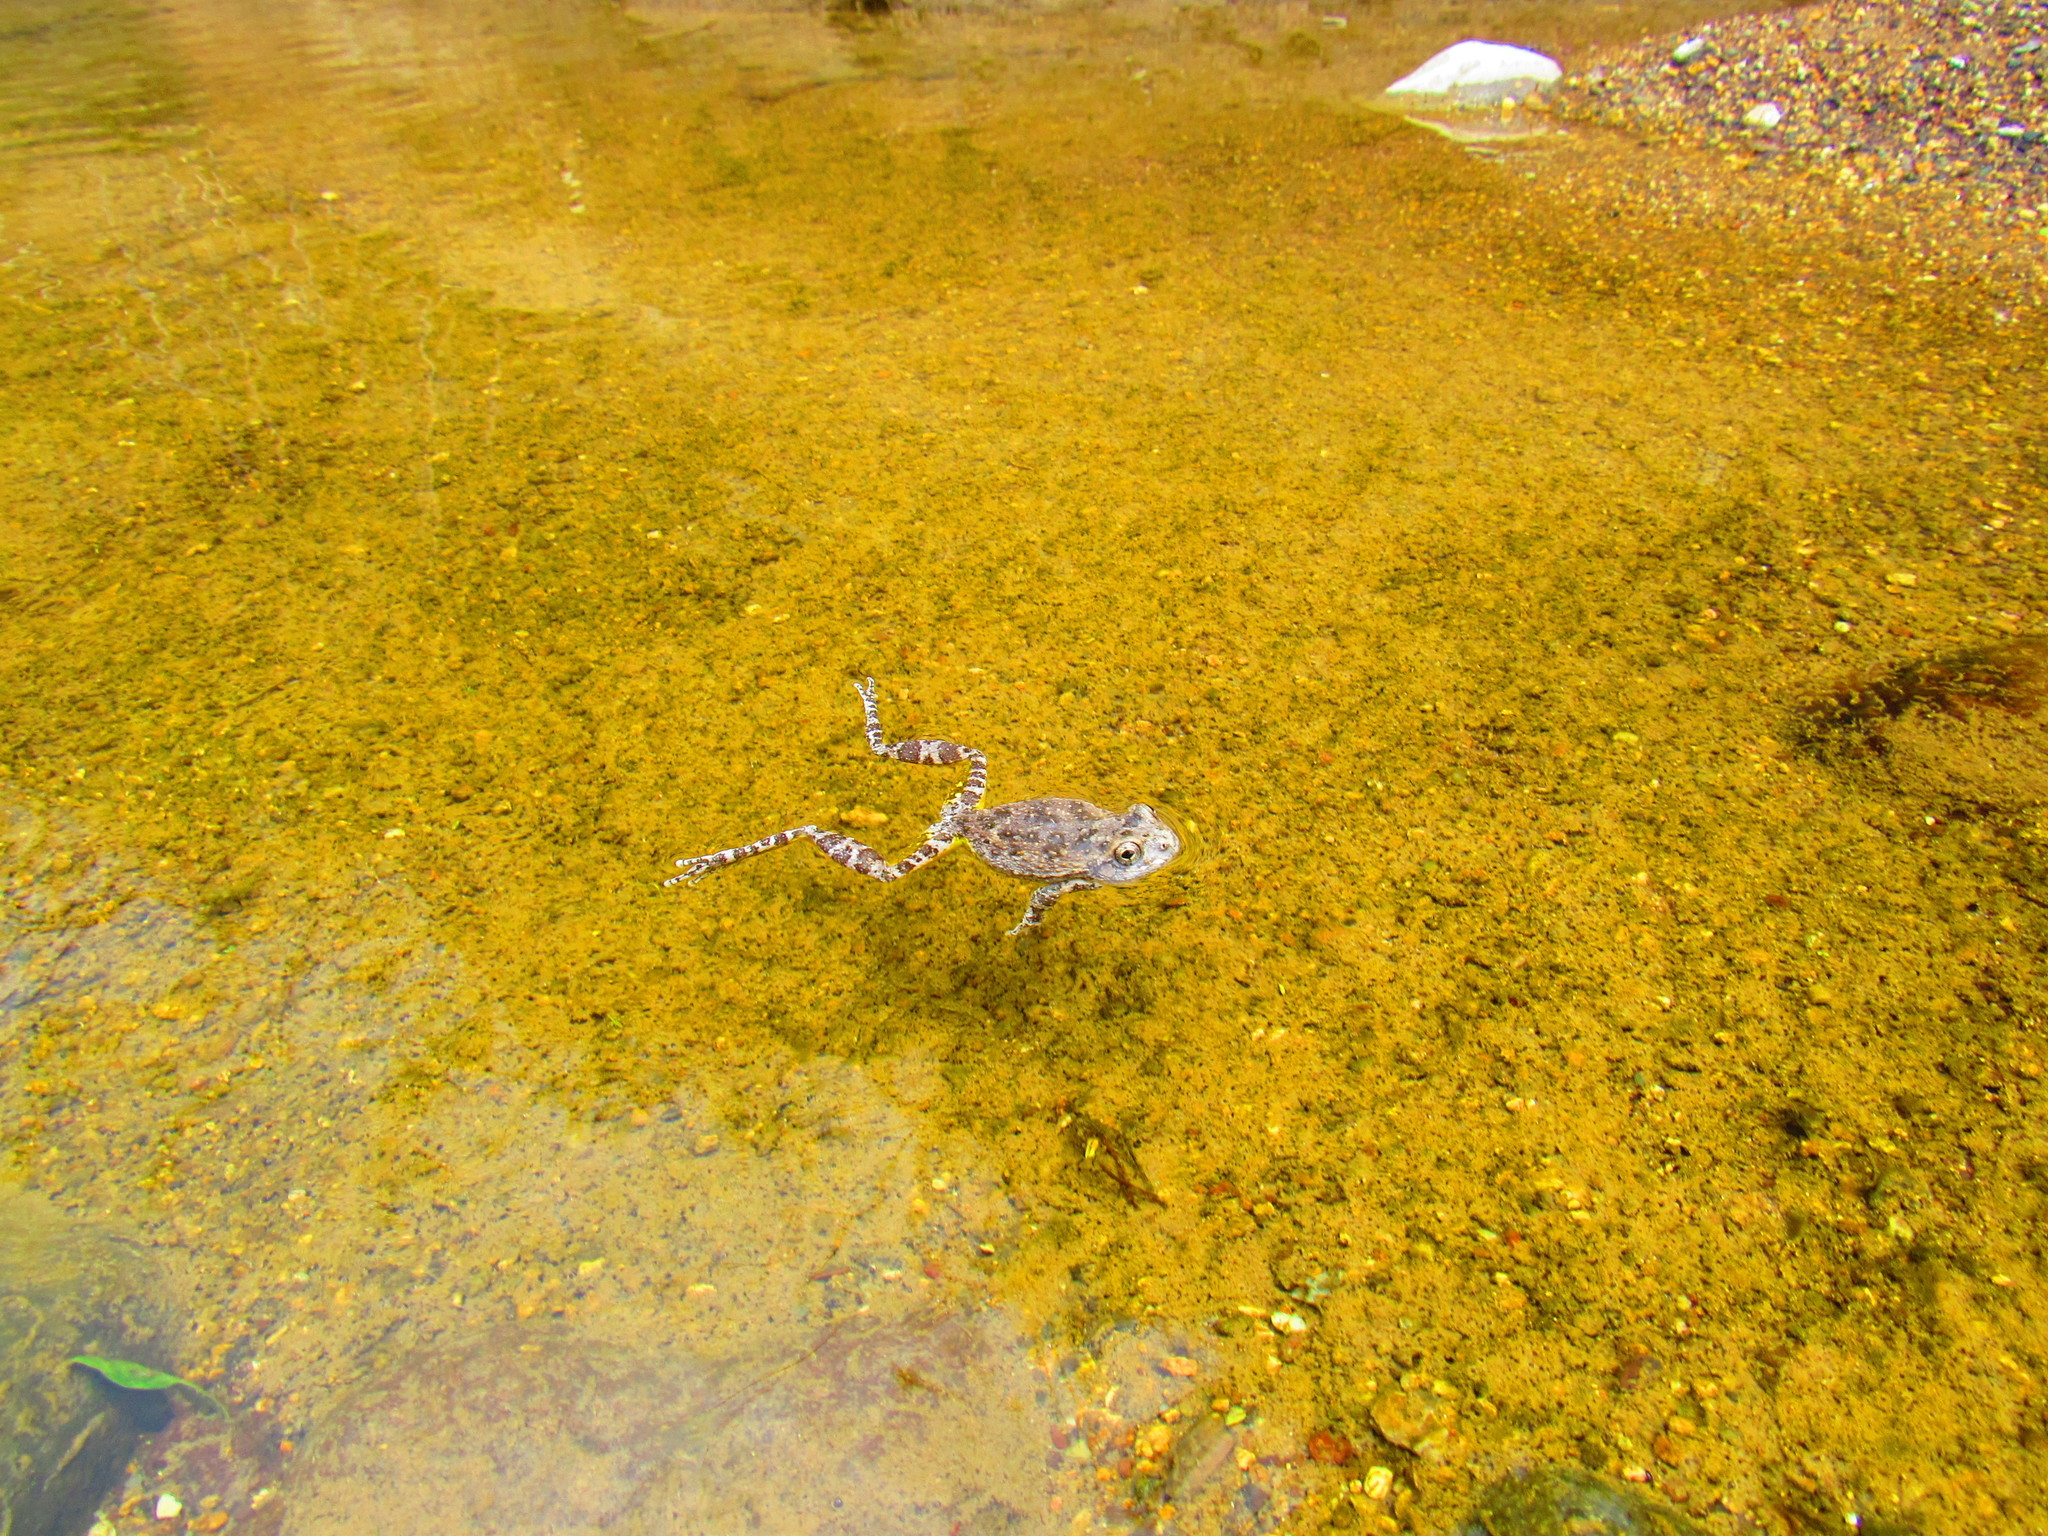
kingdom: Animalia
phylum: Chordata
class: Amphibia
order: Anura
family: Hylidae
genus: Dryophytes
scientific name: Dryophytes arenicolor
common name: Canyon treefrog
